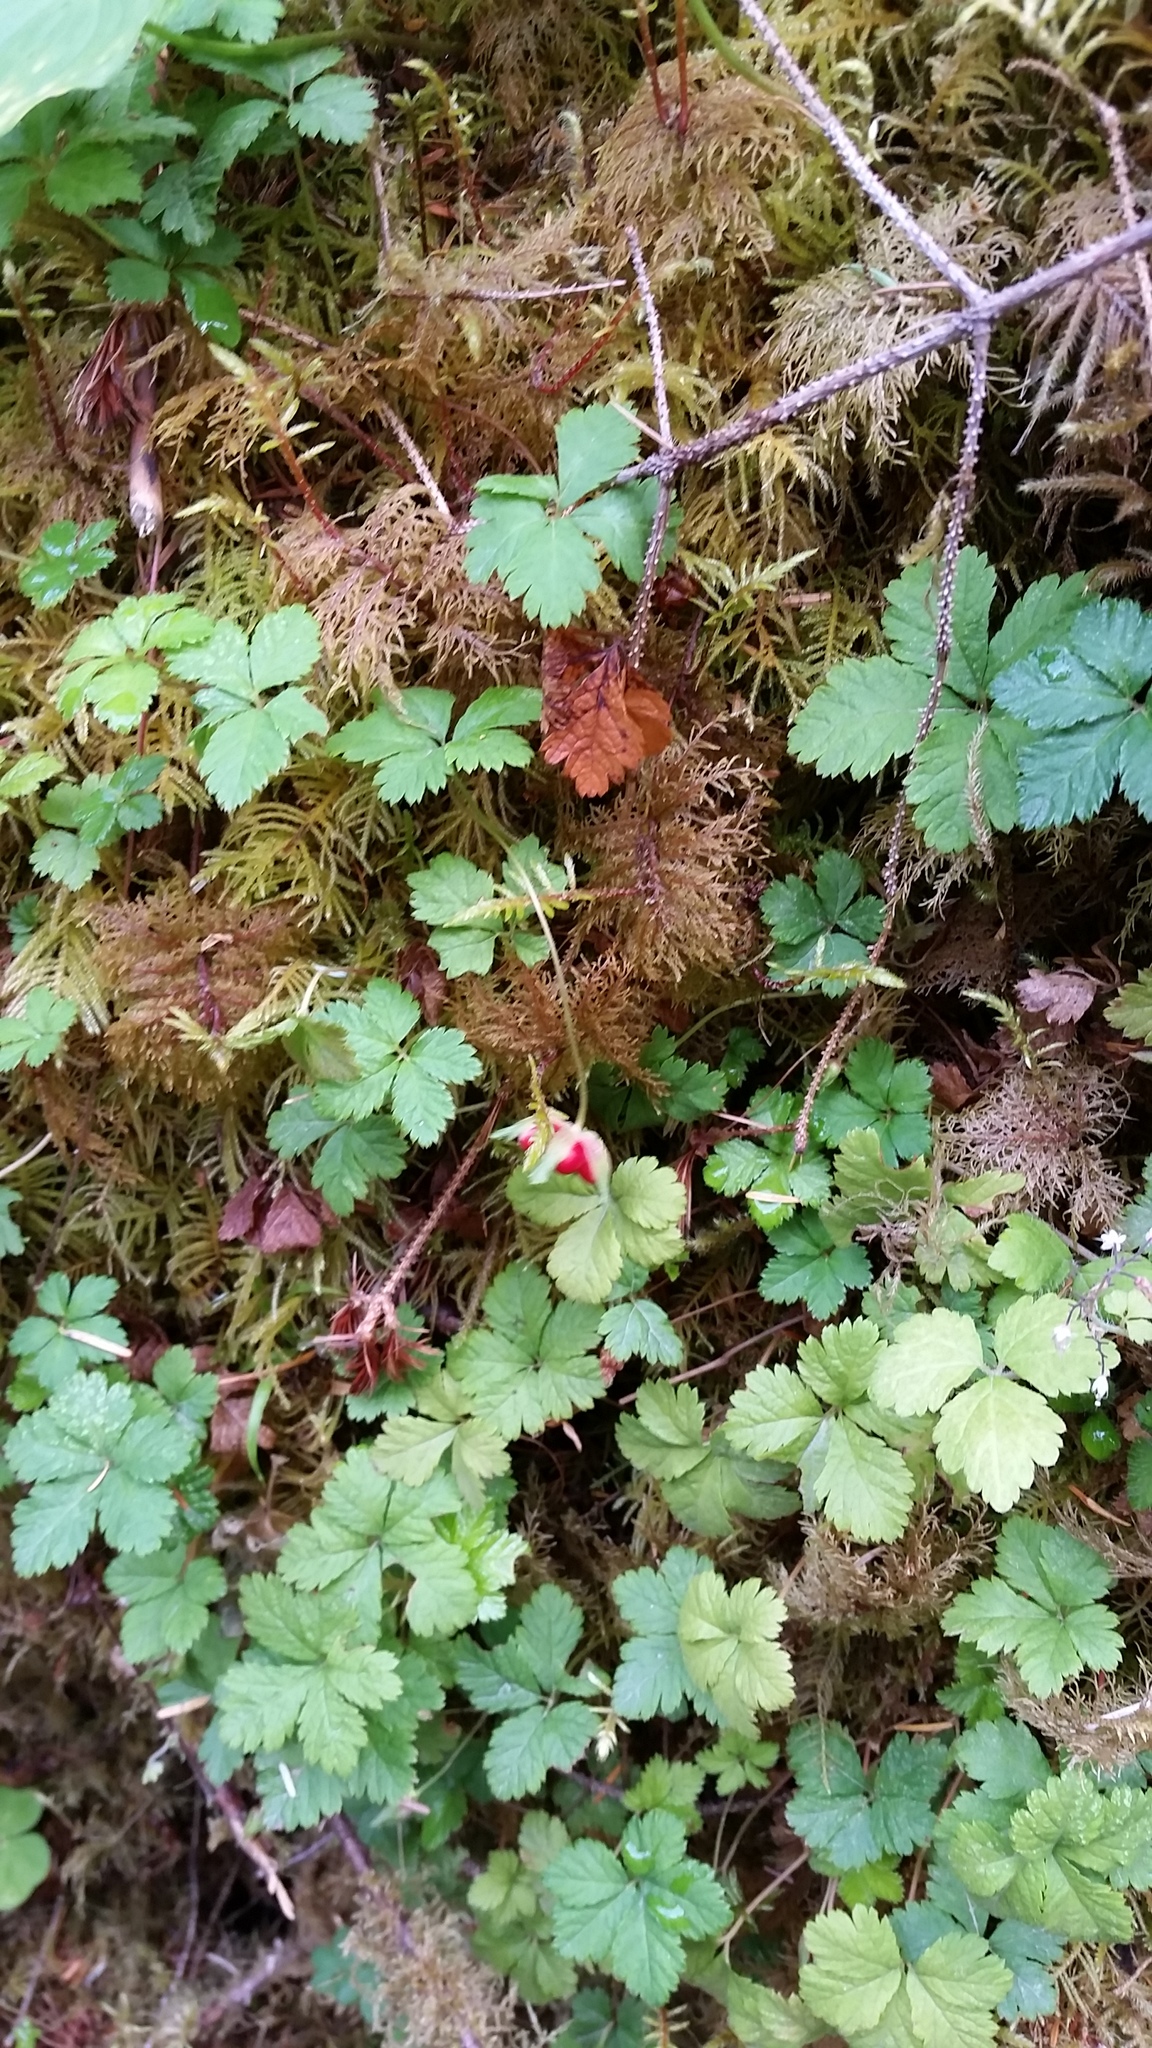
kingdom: Plantae
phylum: Tracheophyta
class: Magnoliopsida
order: Rosales
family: Rosaceae
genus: Rubus
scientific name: Rubus pedatus
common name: Creeping raspberry
